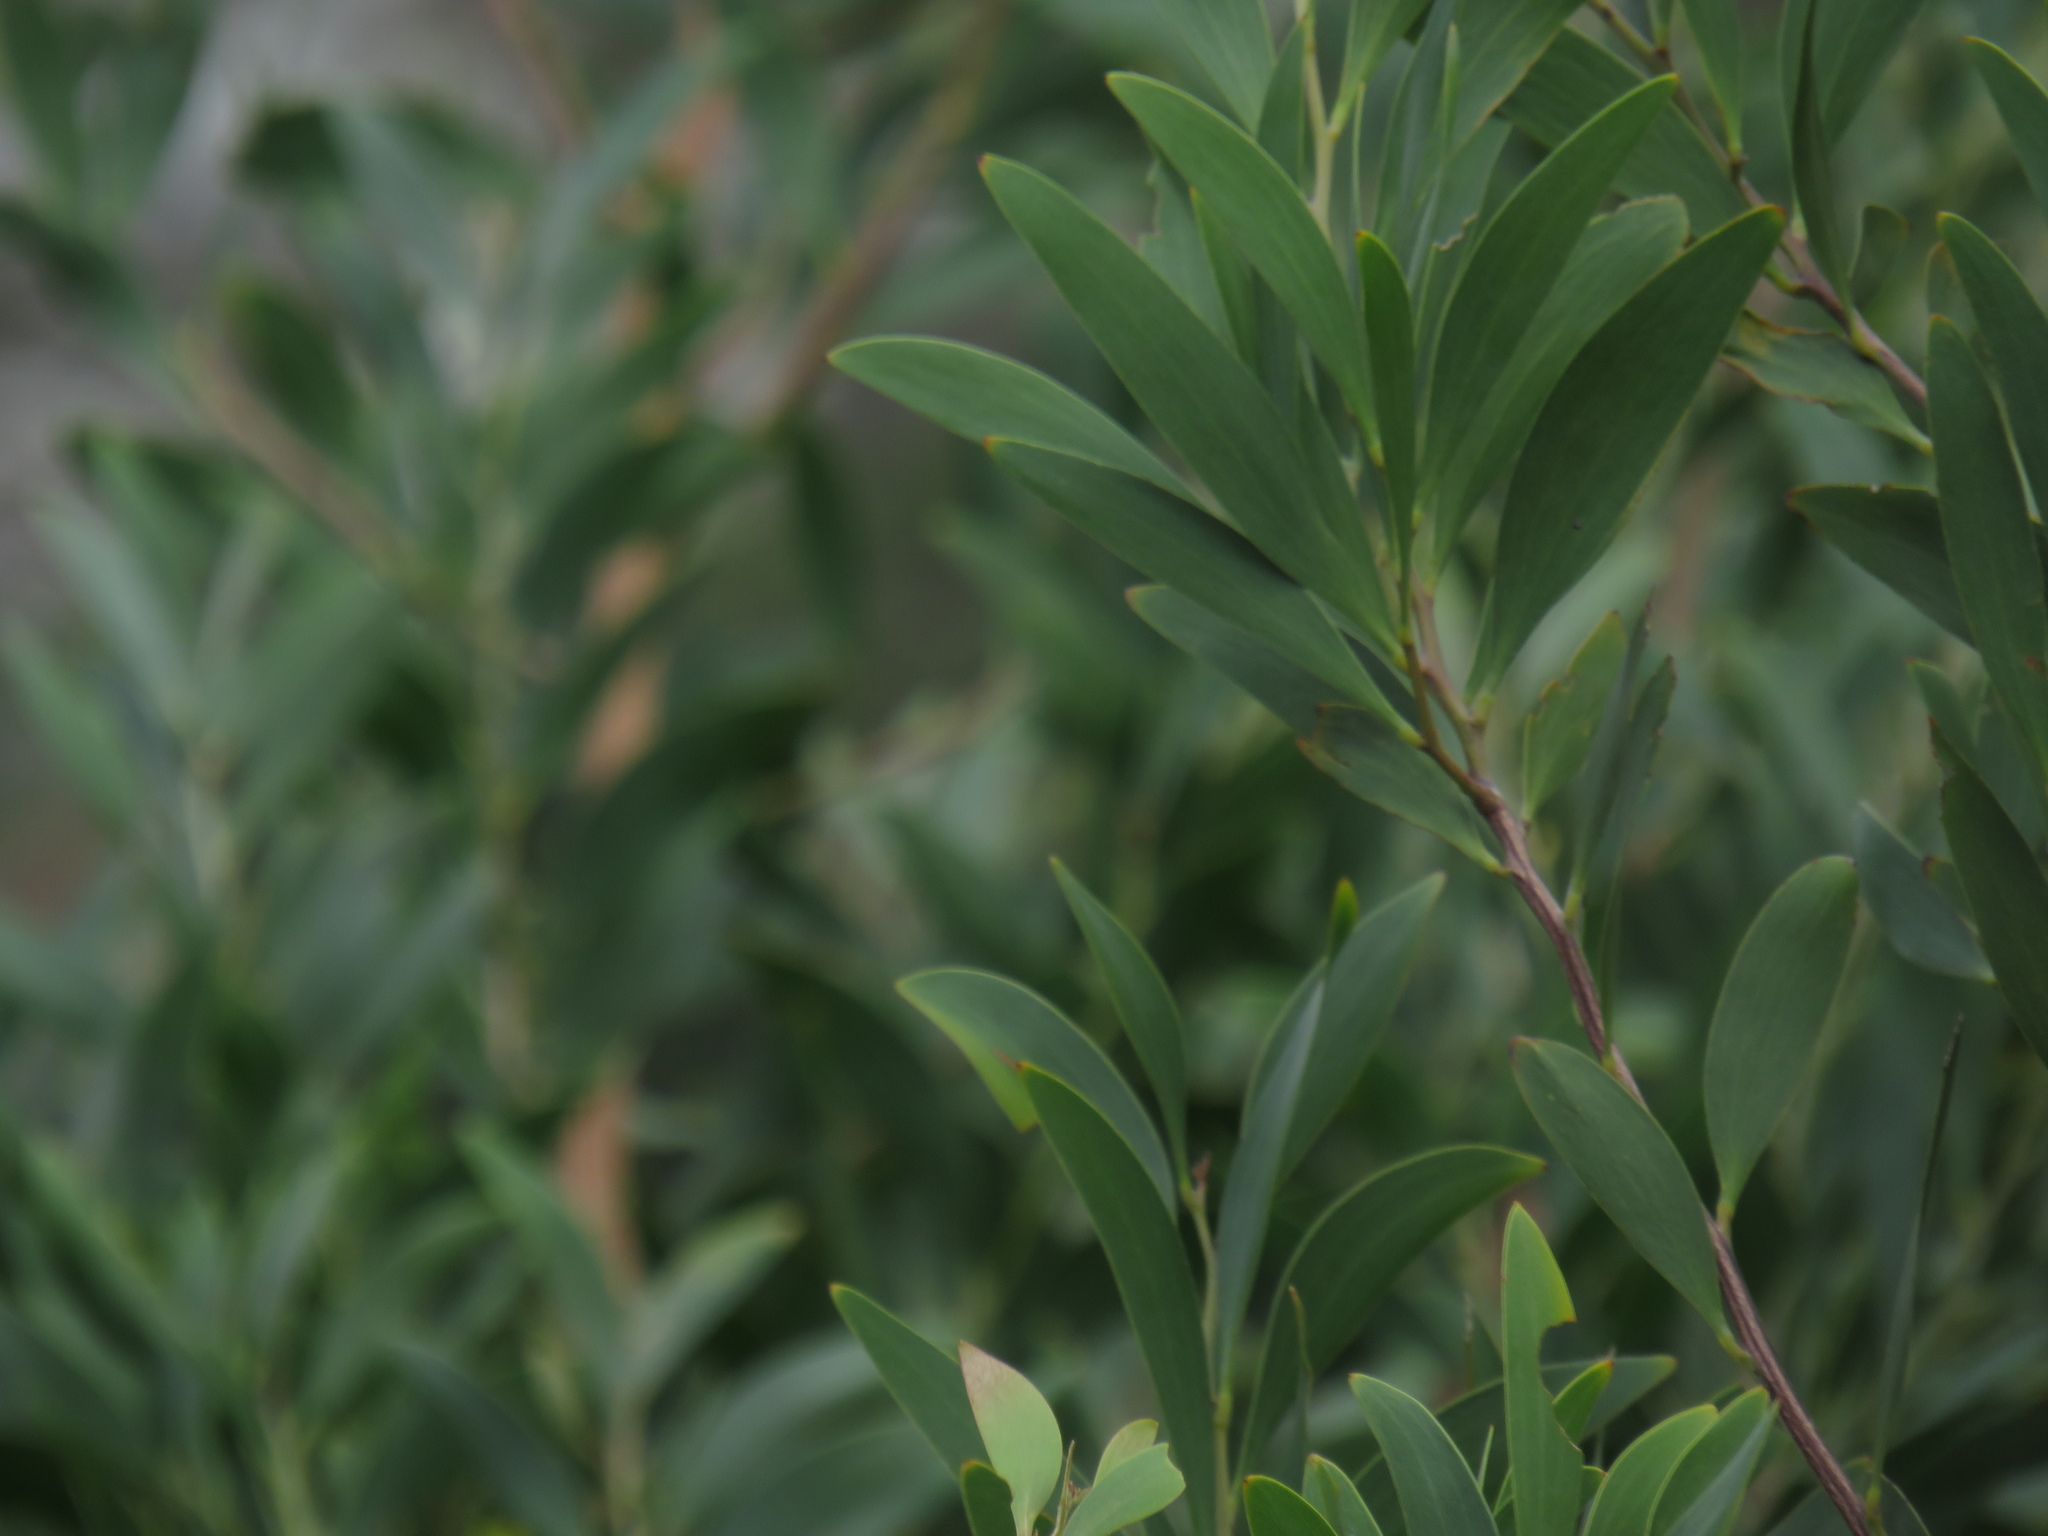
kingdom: Plantae
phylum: Tracheophyta
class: Magnoliopsida
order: Fabales
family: Fabaceae
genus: Acacia
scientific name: Acacia melanoxylon
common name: Blackwood
